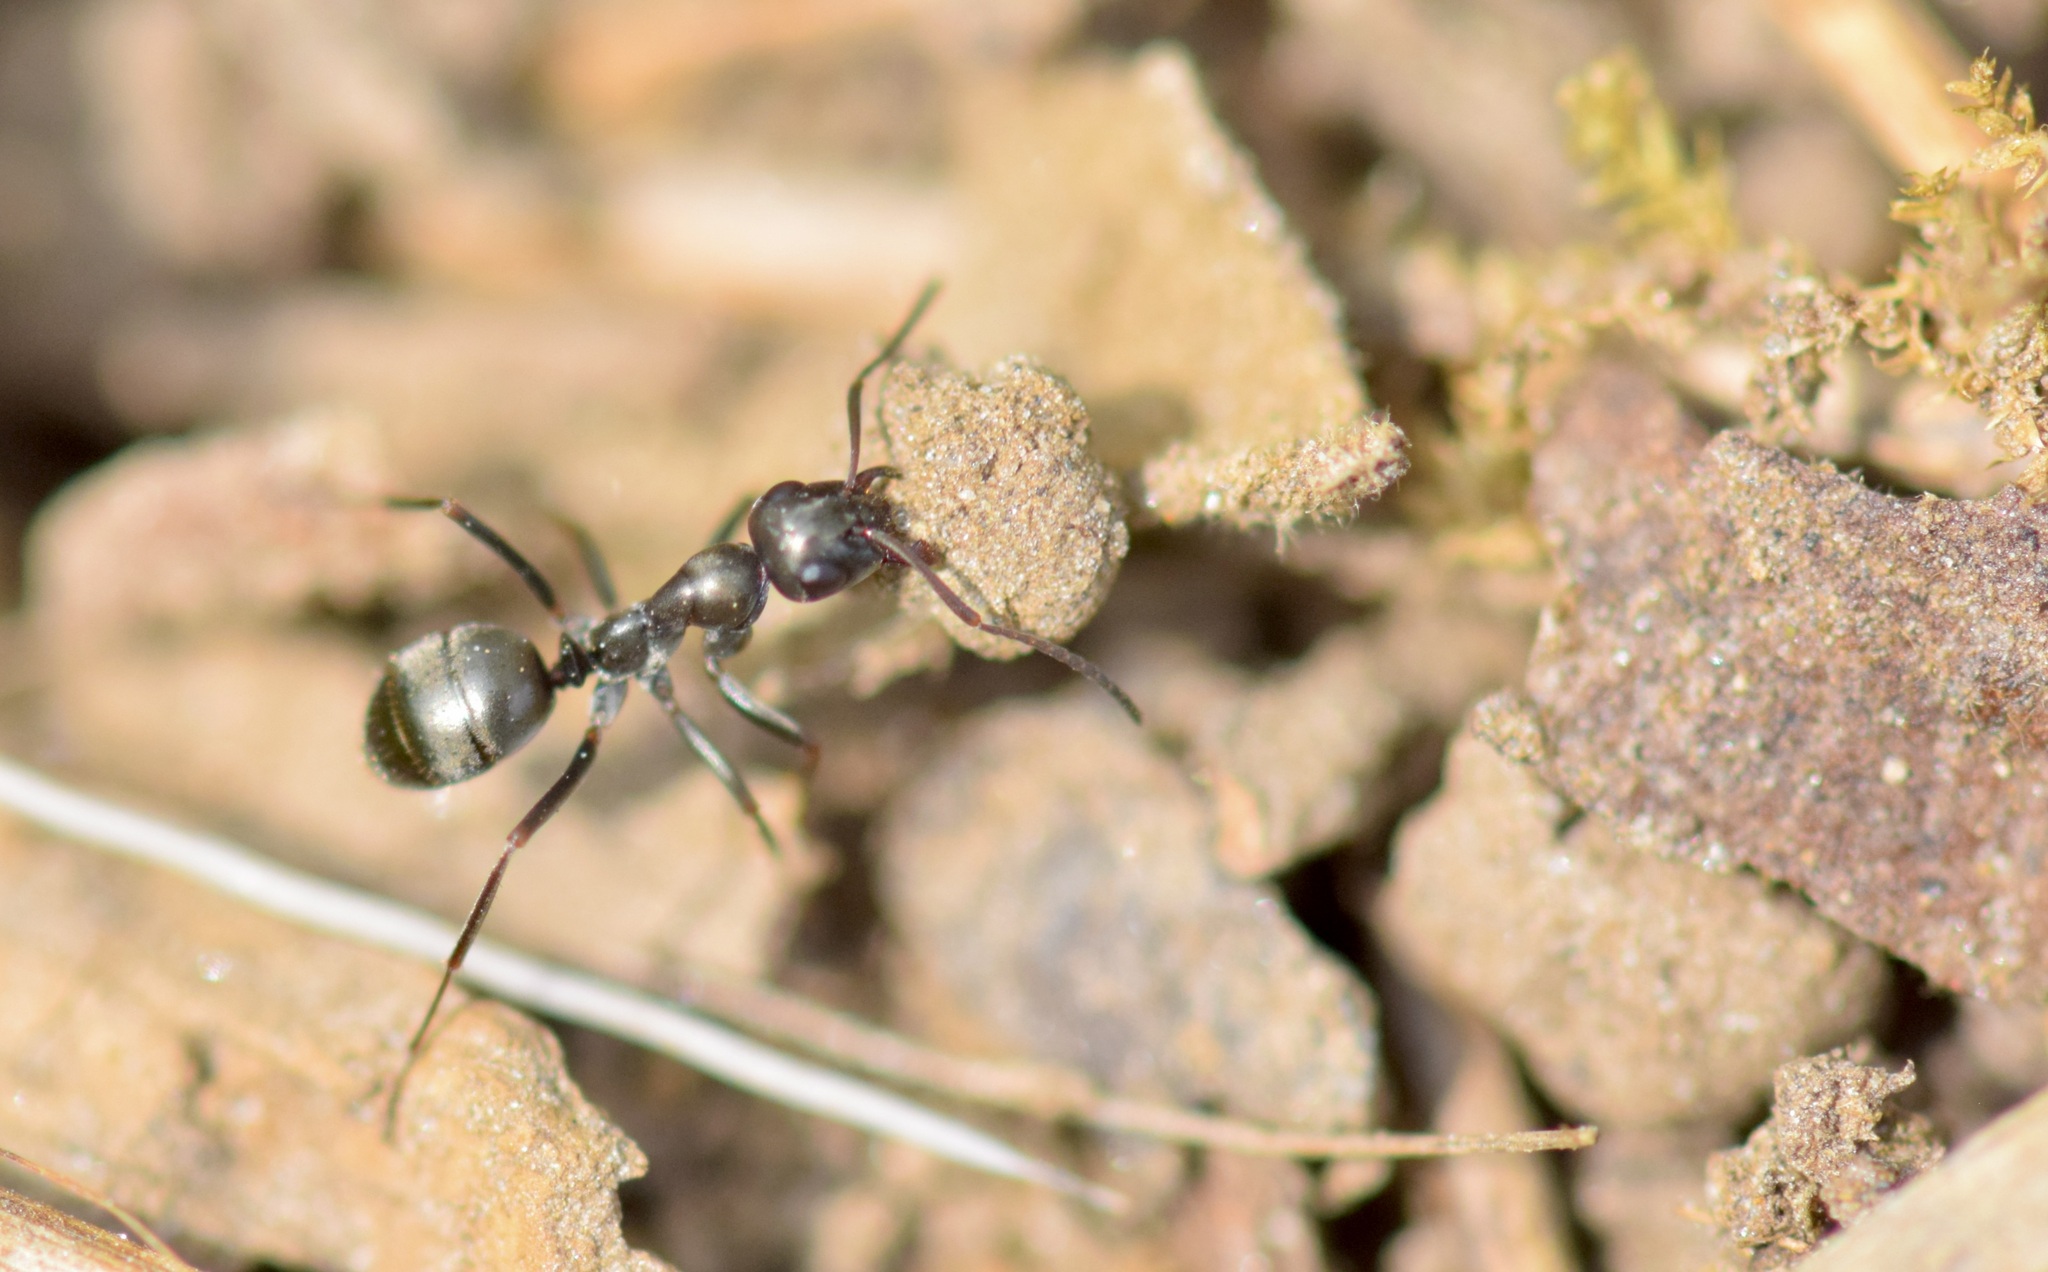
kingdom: Animalia
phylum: Arthropoda
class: Insecta
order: Hymenoptera
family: Formicidae
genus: Formica
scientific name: Formica
